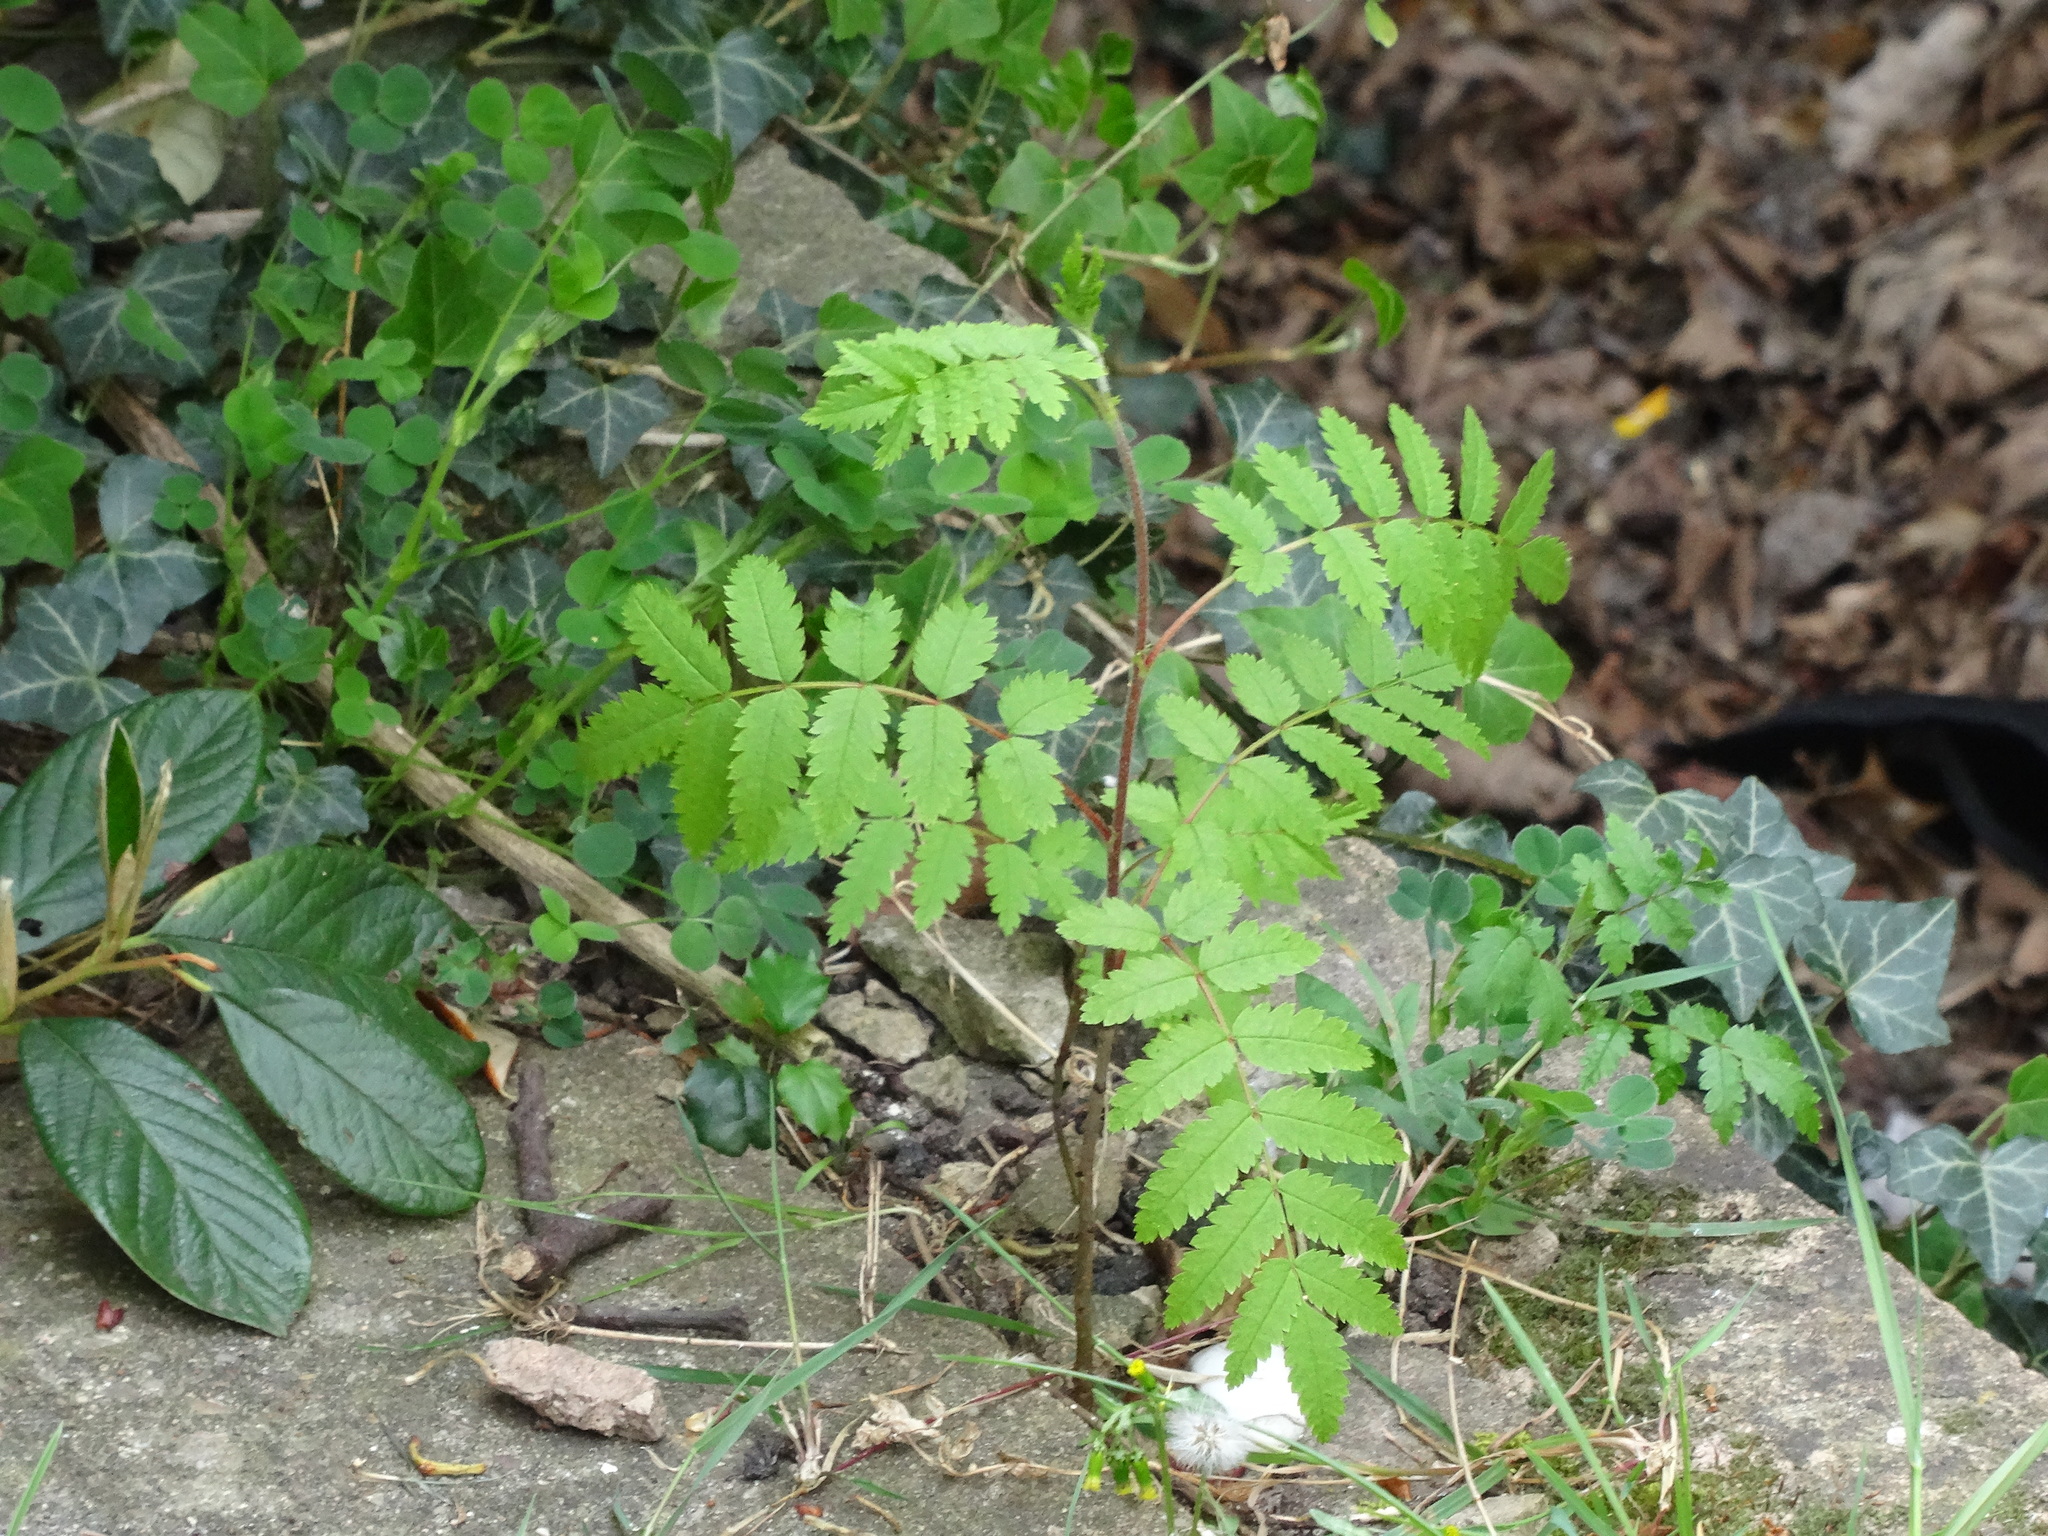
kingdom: Plantae
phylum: Tracheophyta
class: Magnoliopsida
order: Rosales
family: Rosaceae
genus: Sorbus
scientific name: Sorbus aucuparia
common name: Rowan
